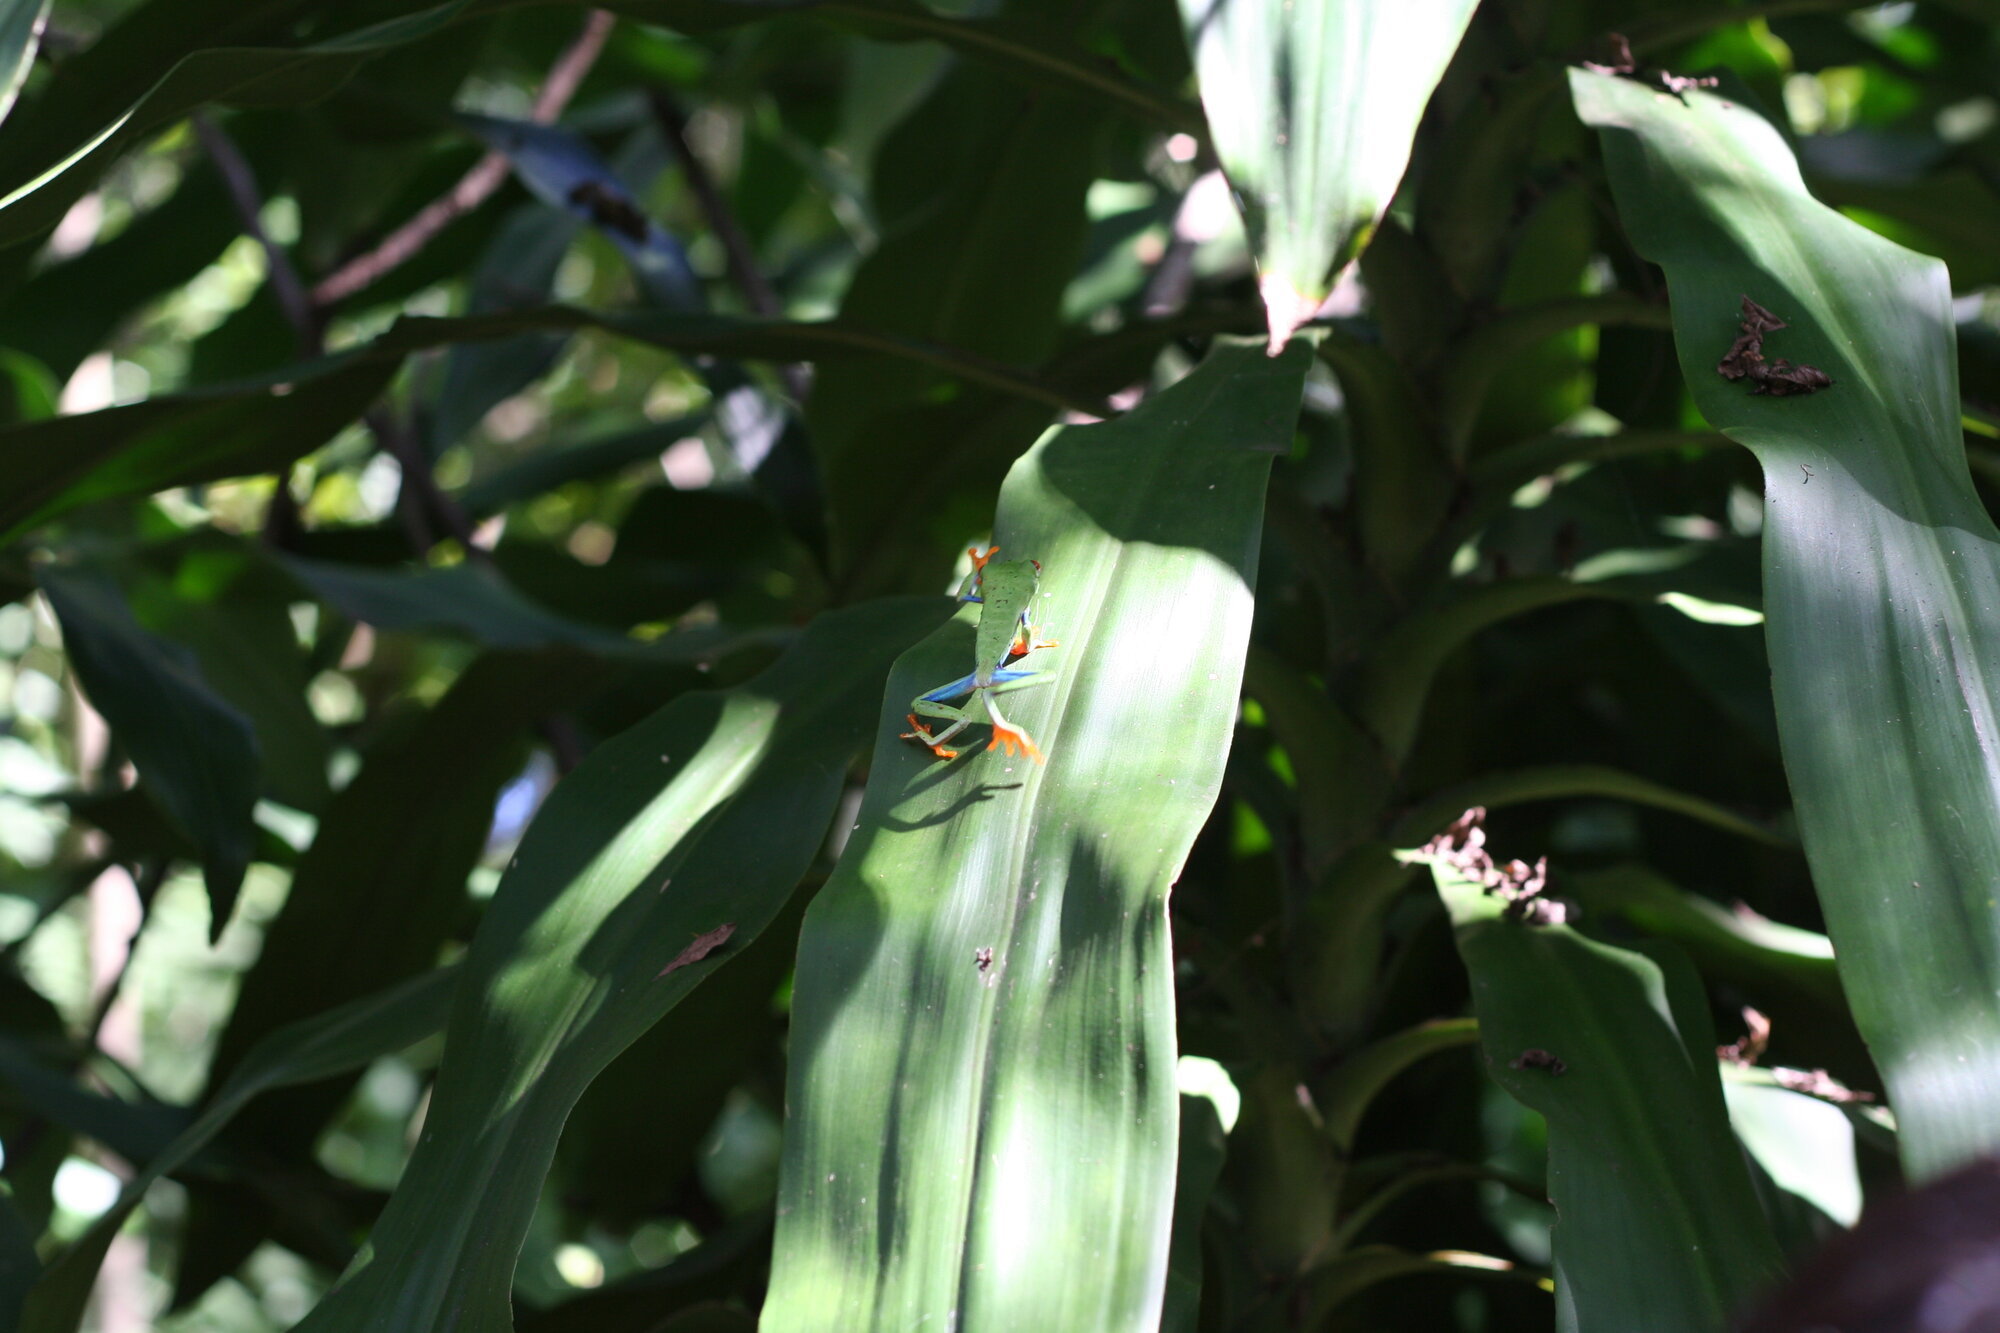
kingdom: Animalia
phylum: Chordata
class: Amphibia
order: Anura
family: Phyllomedusidae
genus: Agalychnis
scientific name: Agalychnis callidryas
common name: Red-eyed treefrog
